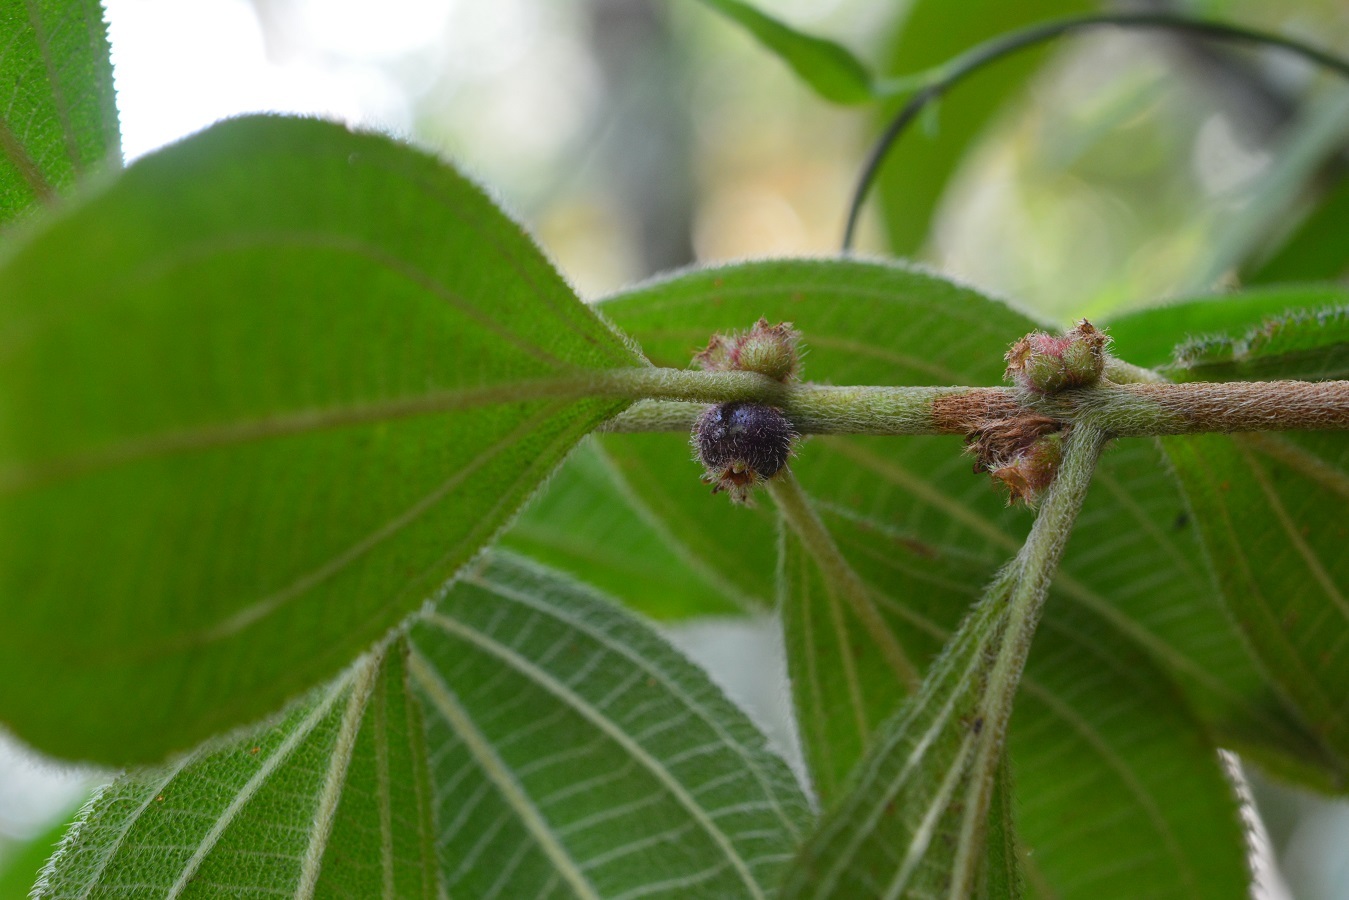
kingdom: Plantae
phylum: Tracheophyta
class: Magnoliopsida
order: Myrtales
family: Melastomataceae
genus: Miconia
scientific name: Miconia sericea
